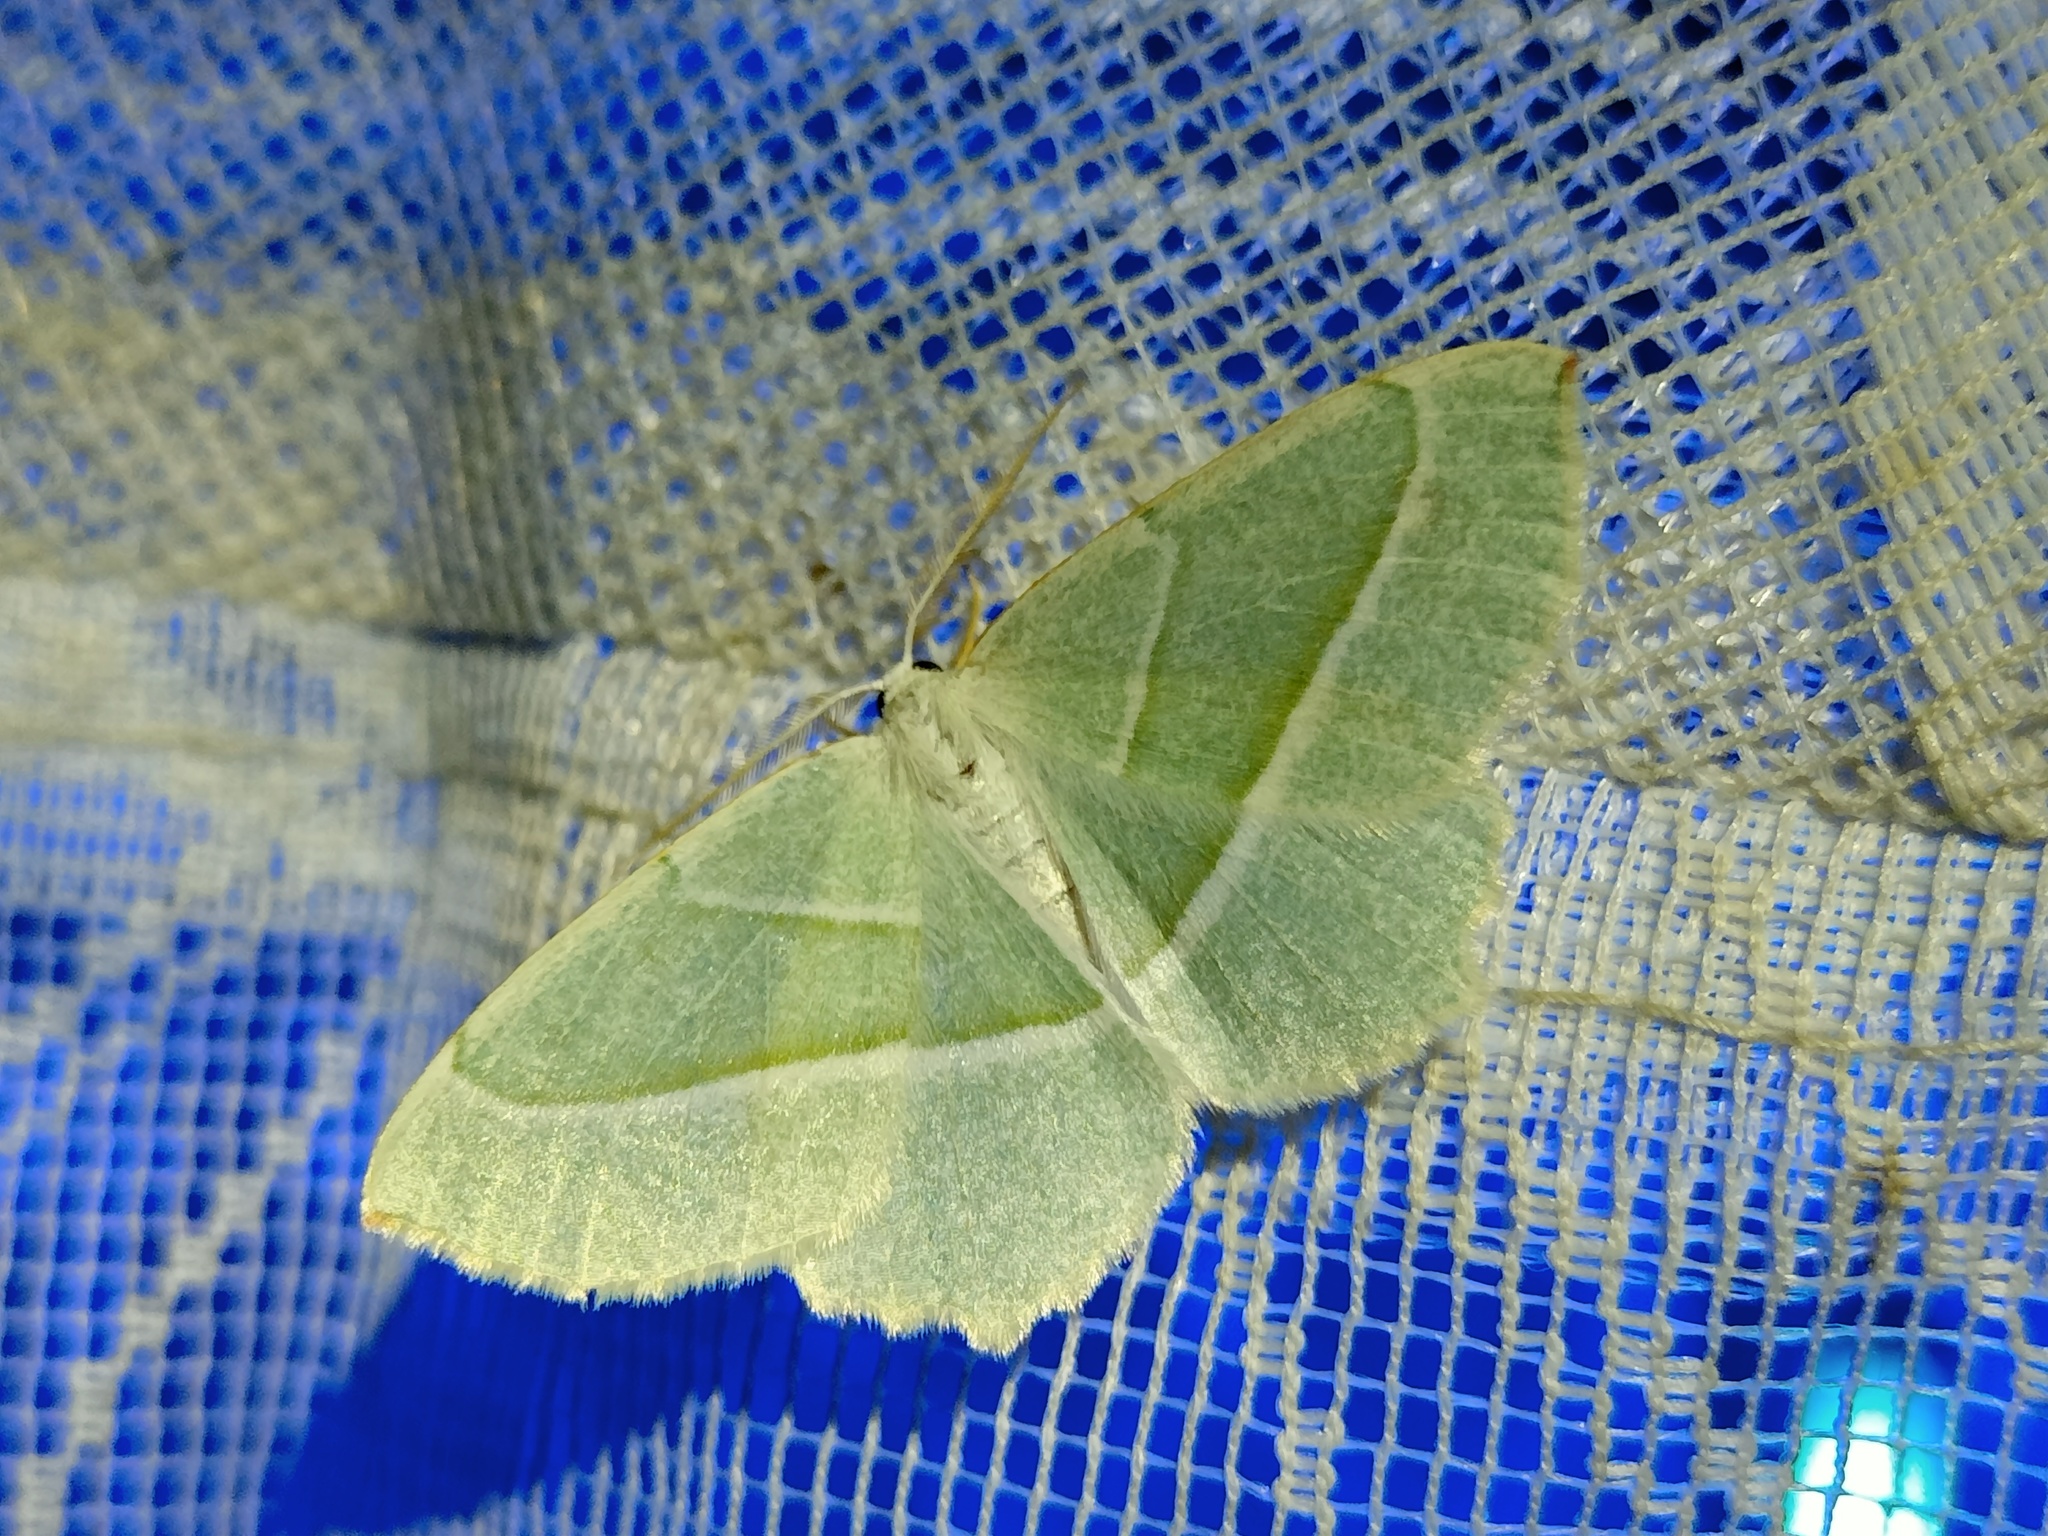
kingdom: Animalia
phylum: Arthropoda
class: Insecta
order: Lepidoptera
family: Geometridae
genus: Campaea
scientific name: Campaea margaritaria
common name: Light emerald
